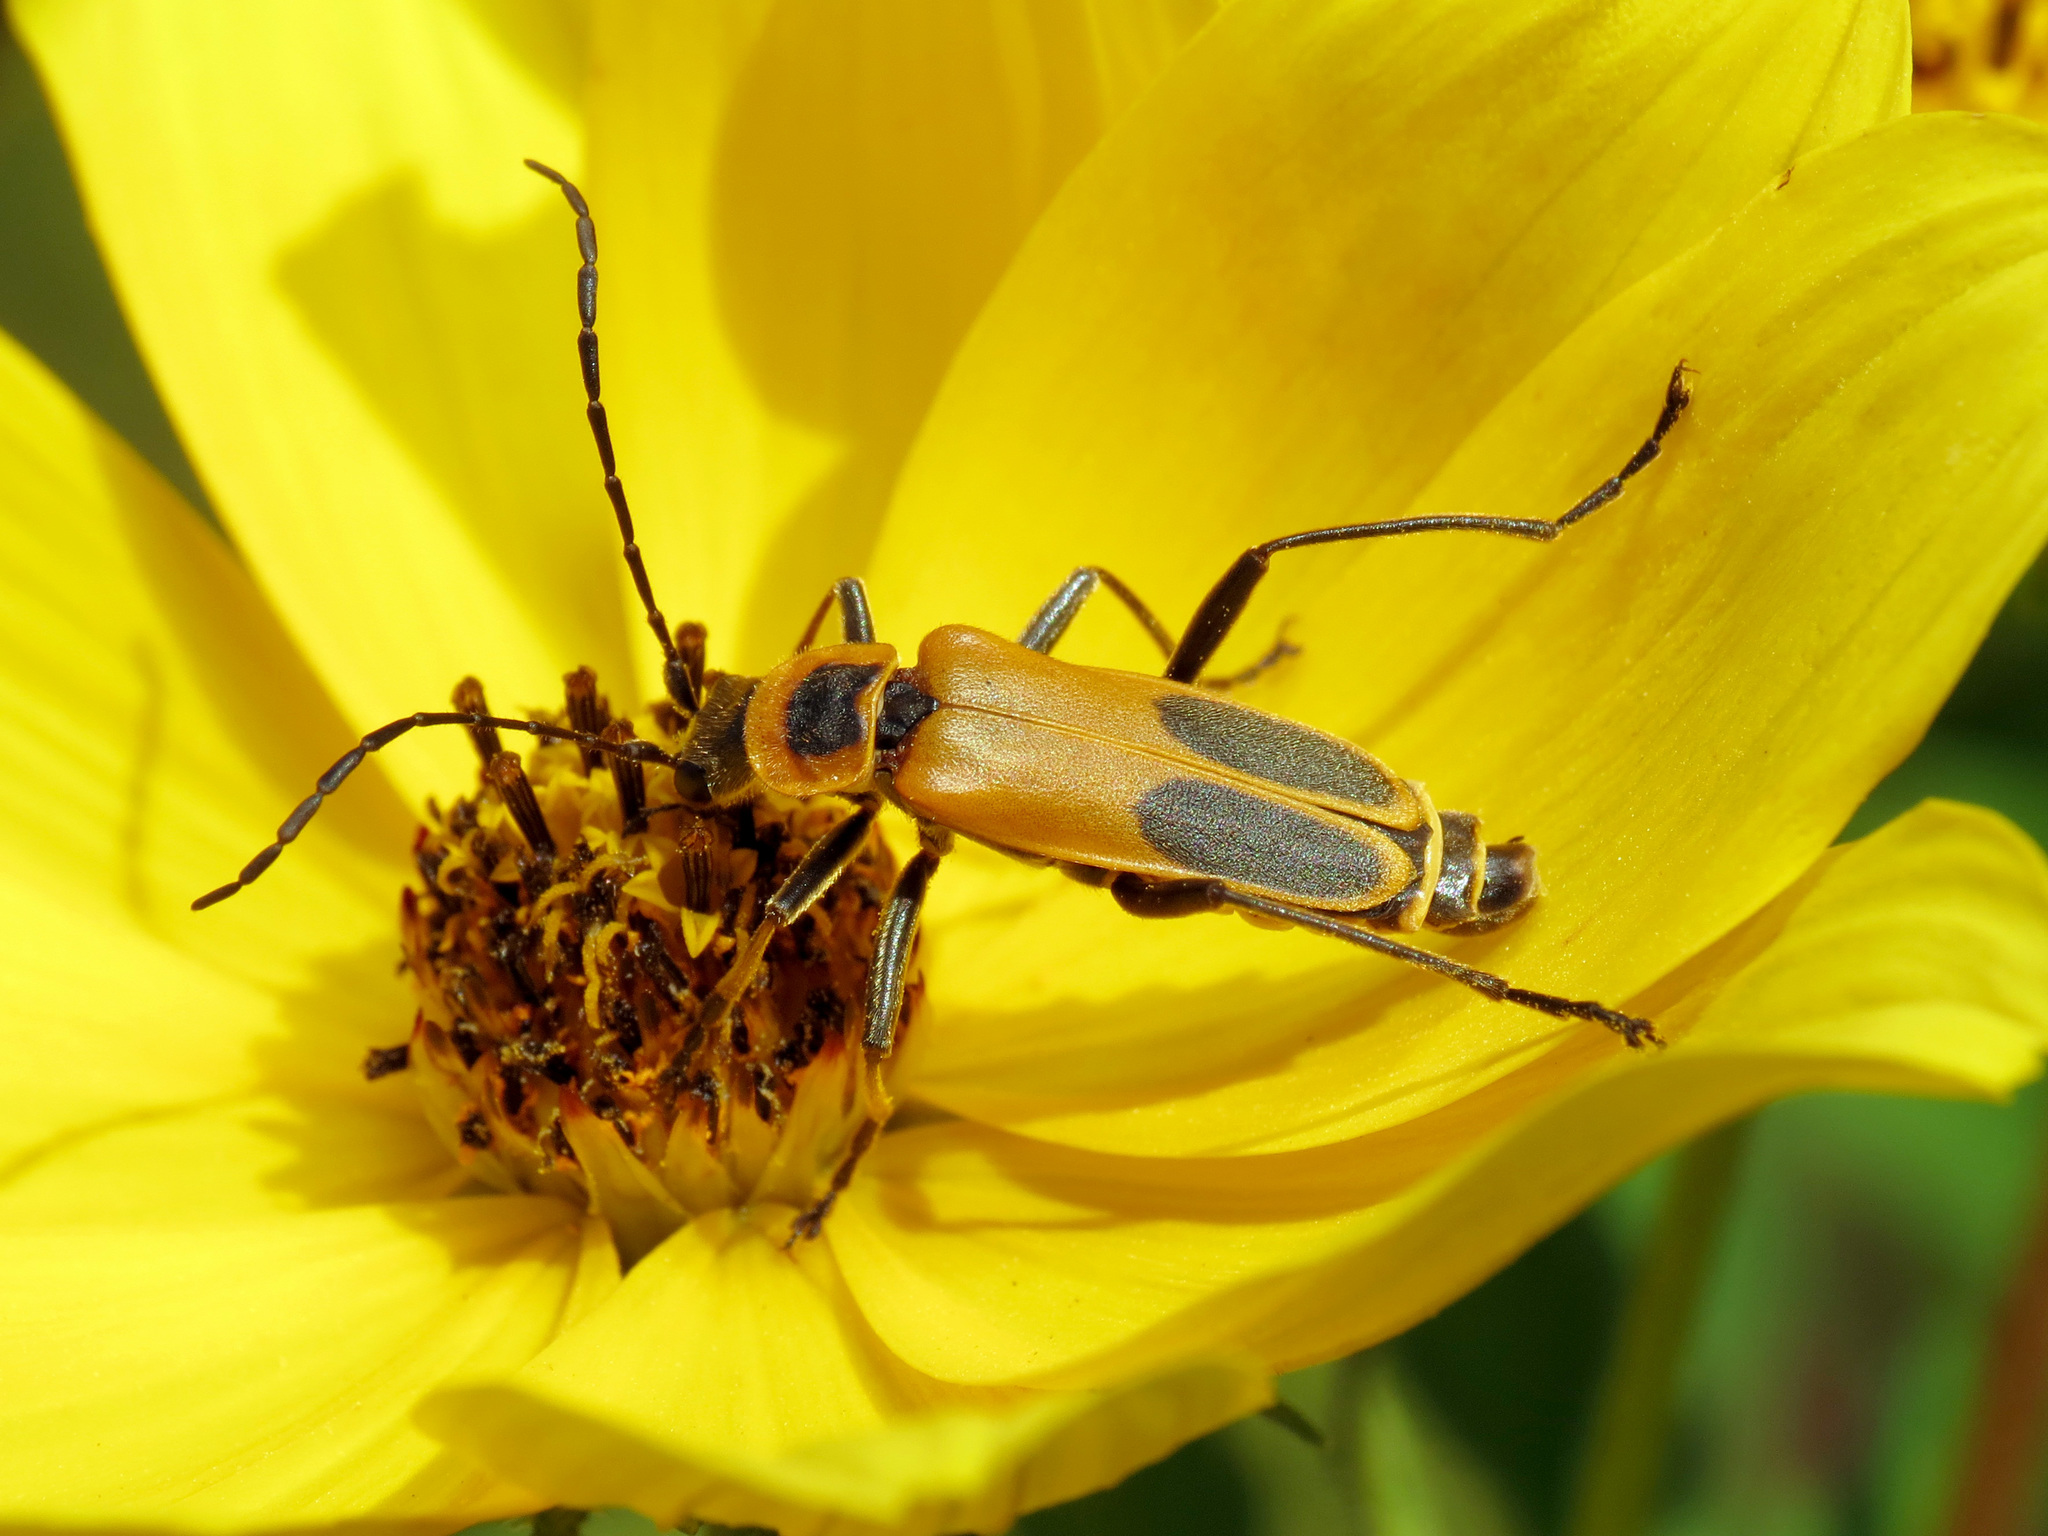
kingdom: Animalia
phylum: Arthropoda
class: Insecta
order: Coleoptera
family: Cantharidae
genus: Chauliognathus
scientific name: Chauliognathus pensylvanicus
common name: Goldenrod soldier beetle
